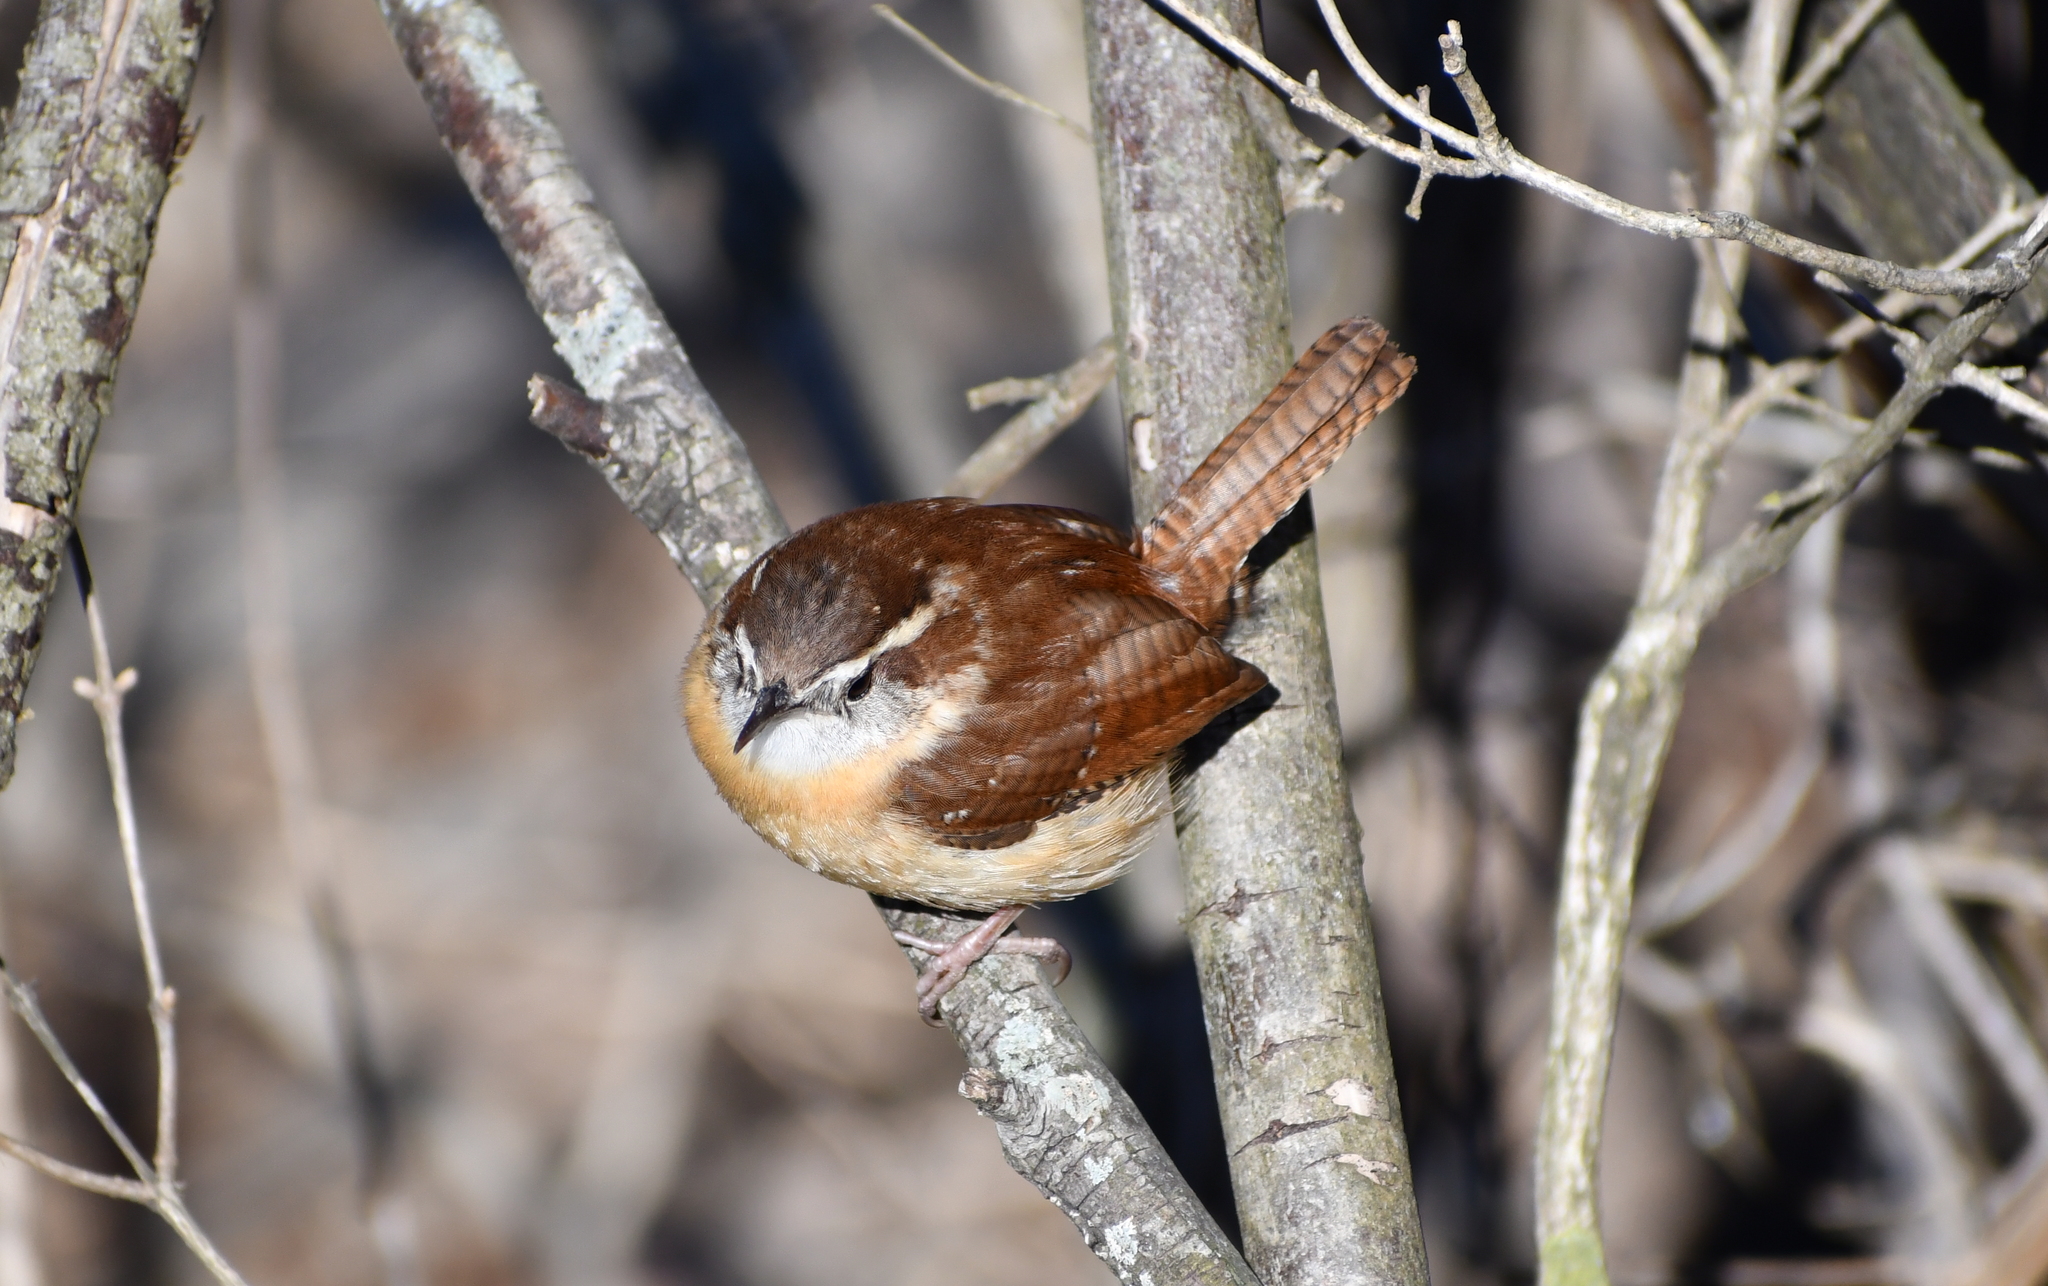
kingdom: Animalia
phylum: Chordata
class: Aves
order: Passeriformes
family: Troglodytidae
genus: Thryothorus
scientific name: Thryothorus ludovicianus
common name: Carolina wren
